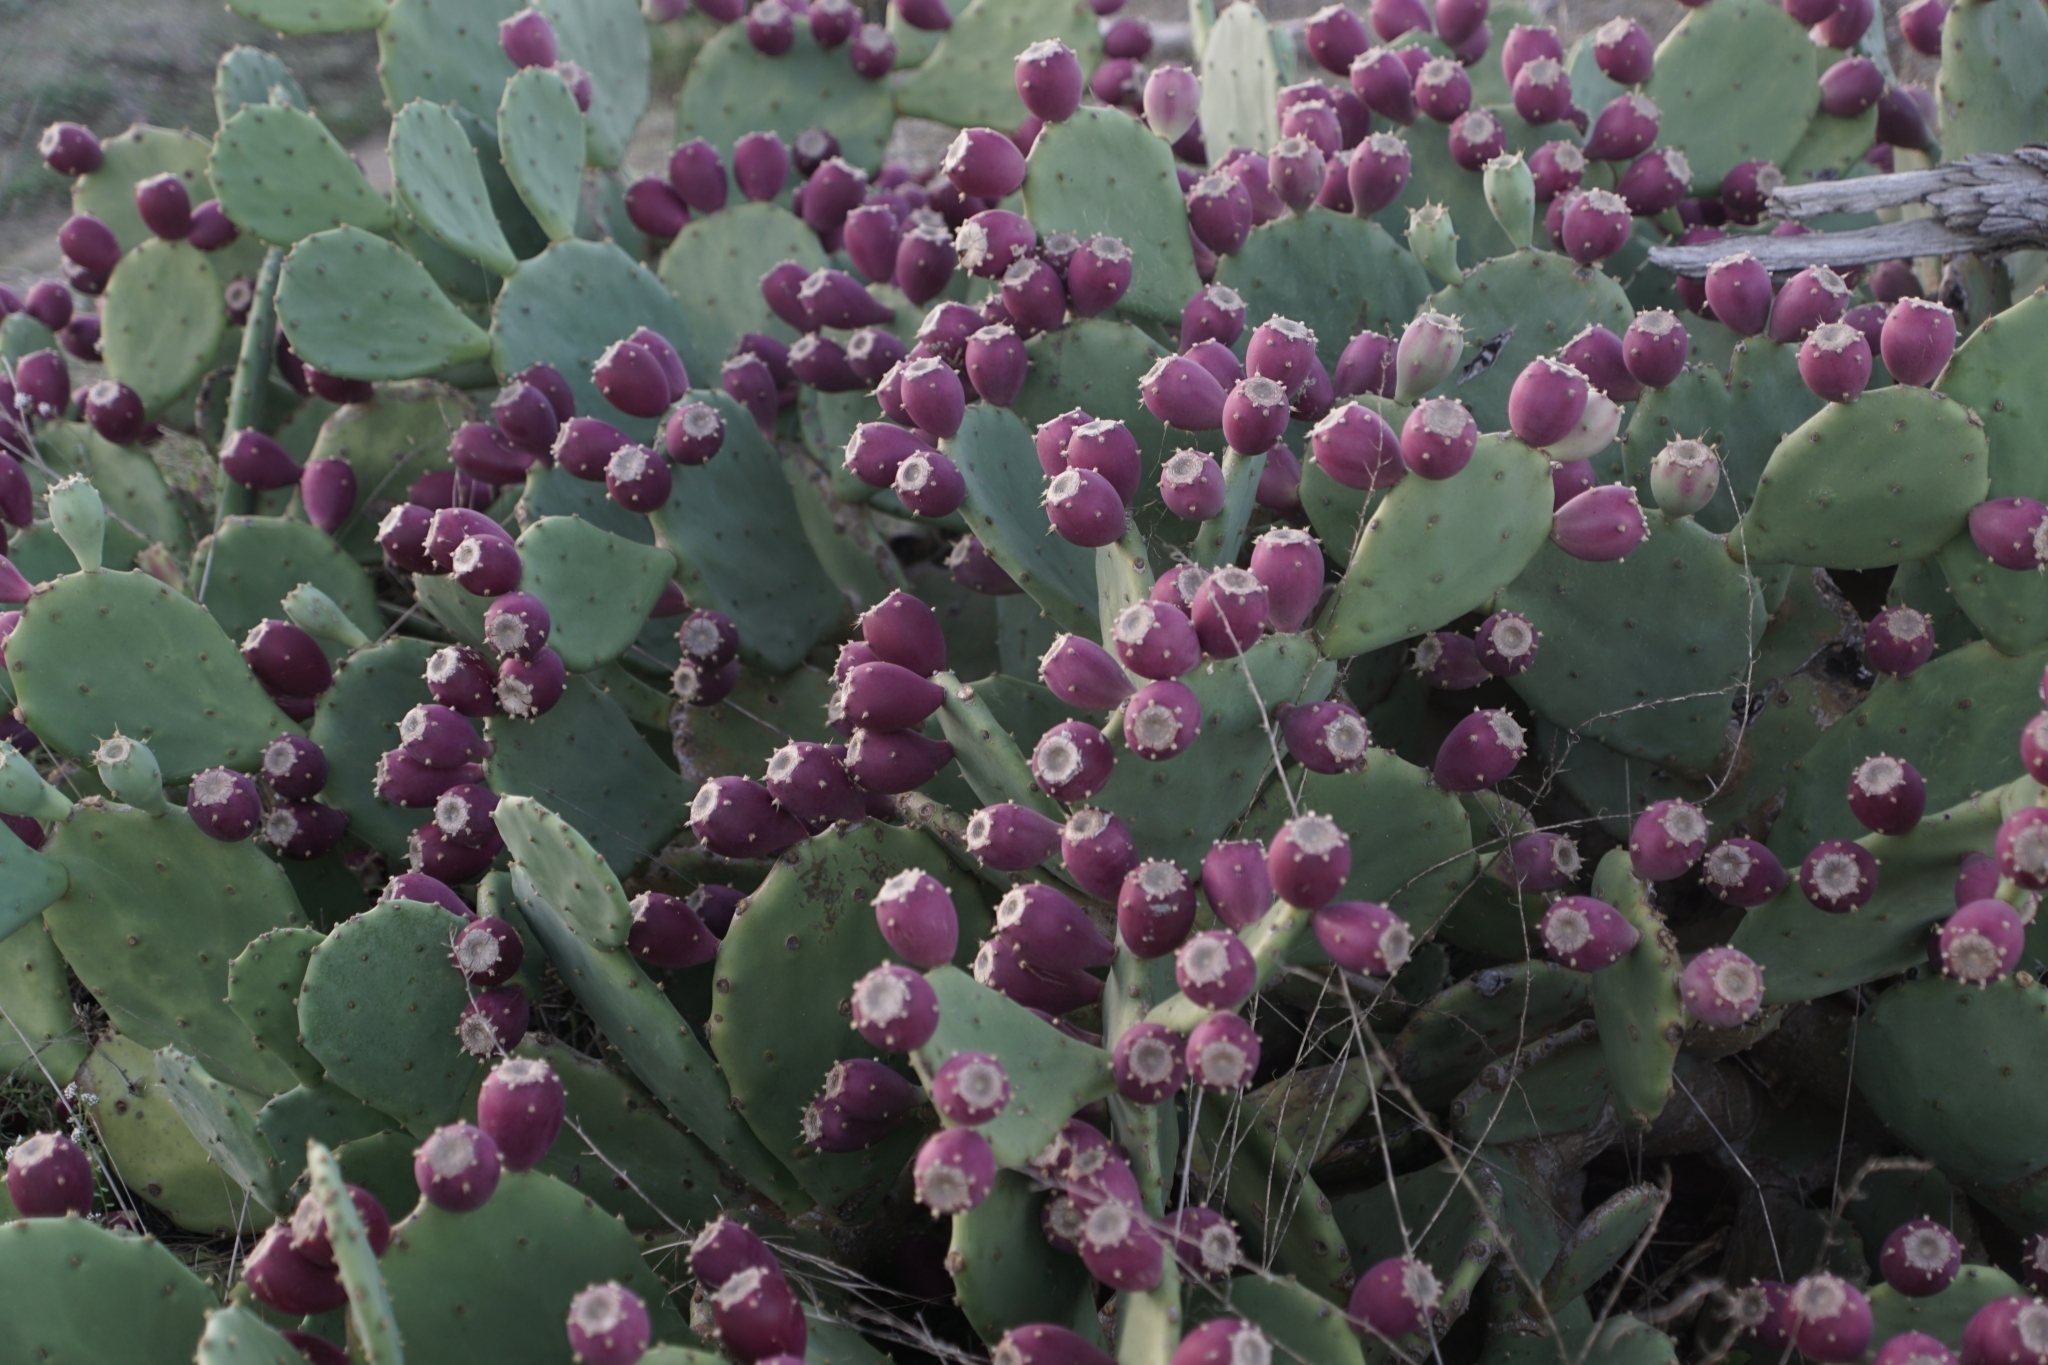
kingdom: Plantae
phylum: Tracheophyta
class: Magnoliopsida
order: Caryophyllales
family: Cactaceae
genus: Opuntia
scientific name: Opuntia anahuacensis
